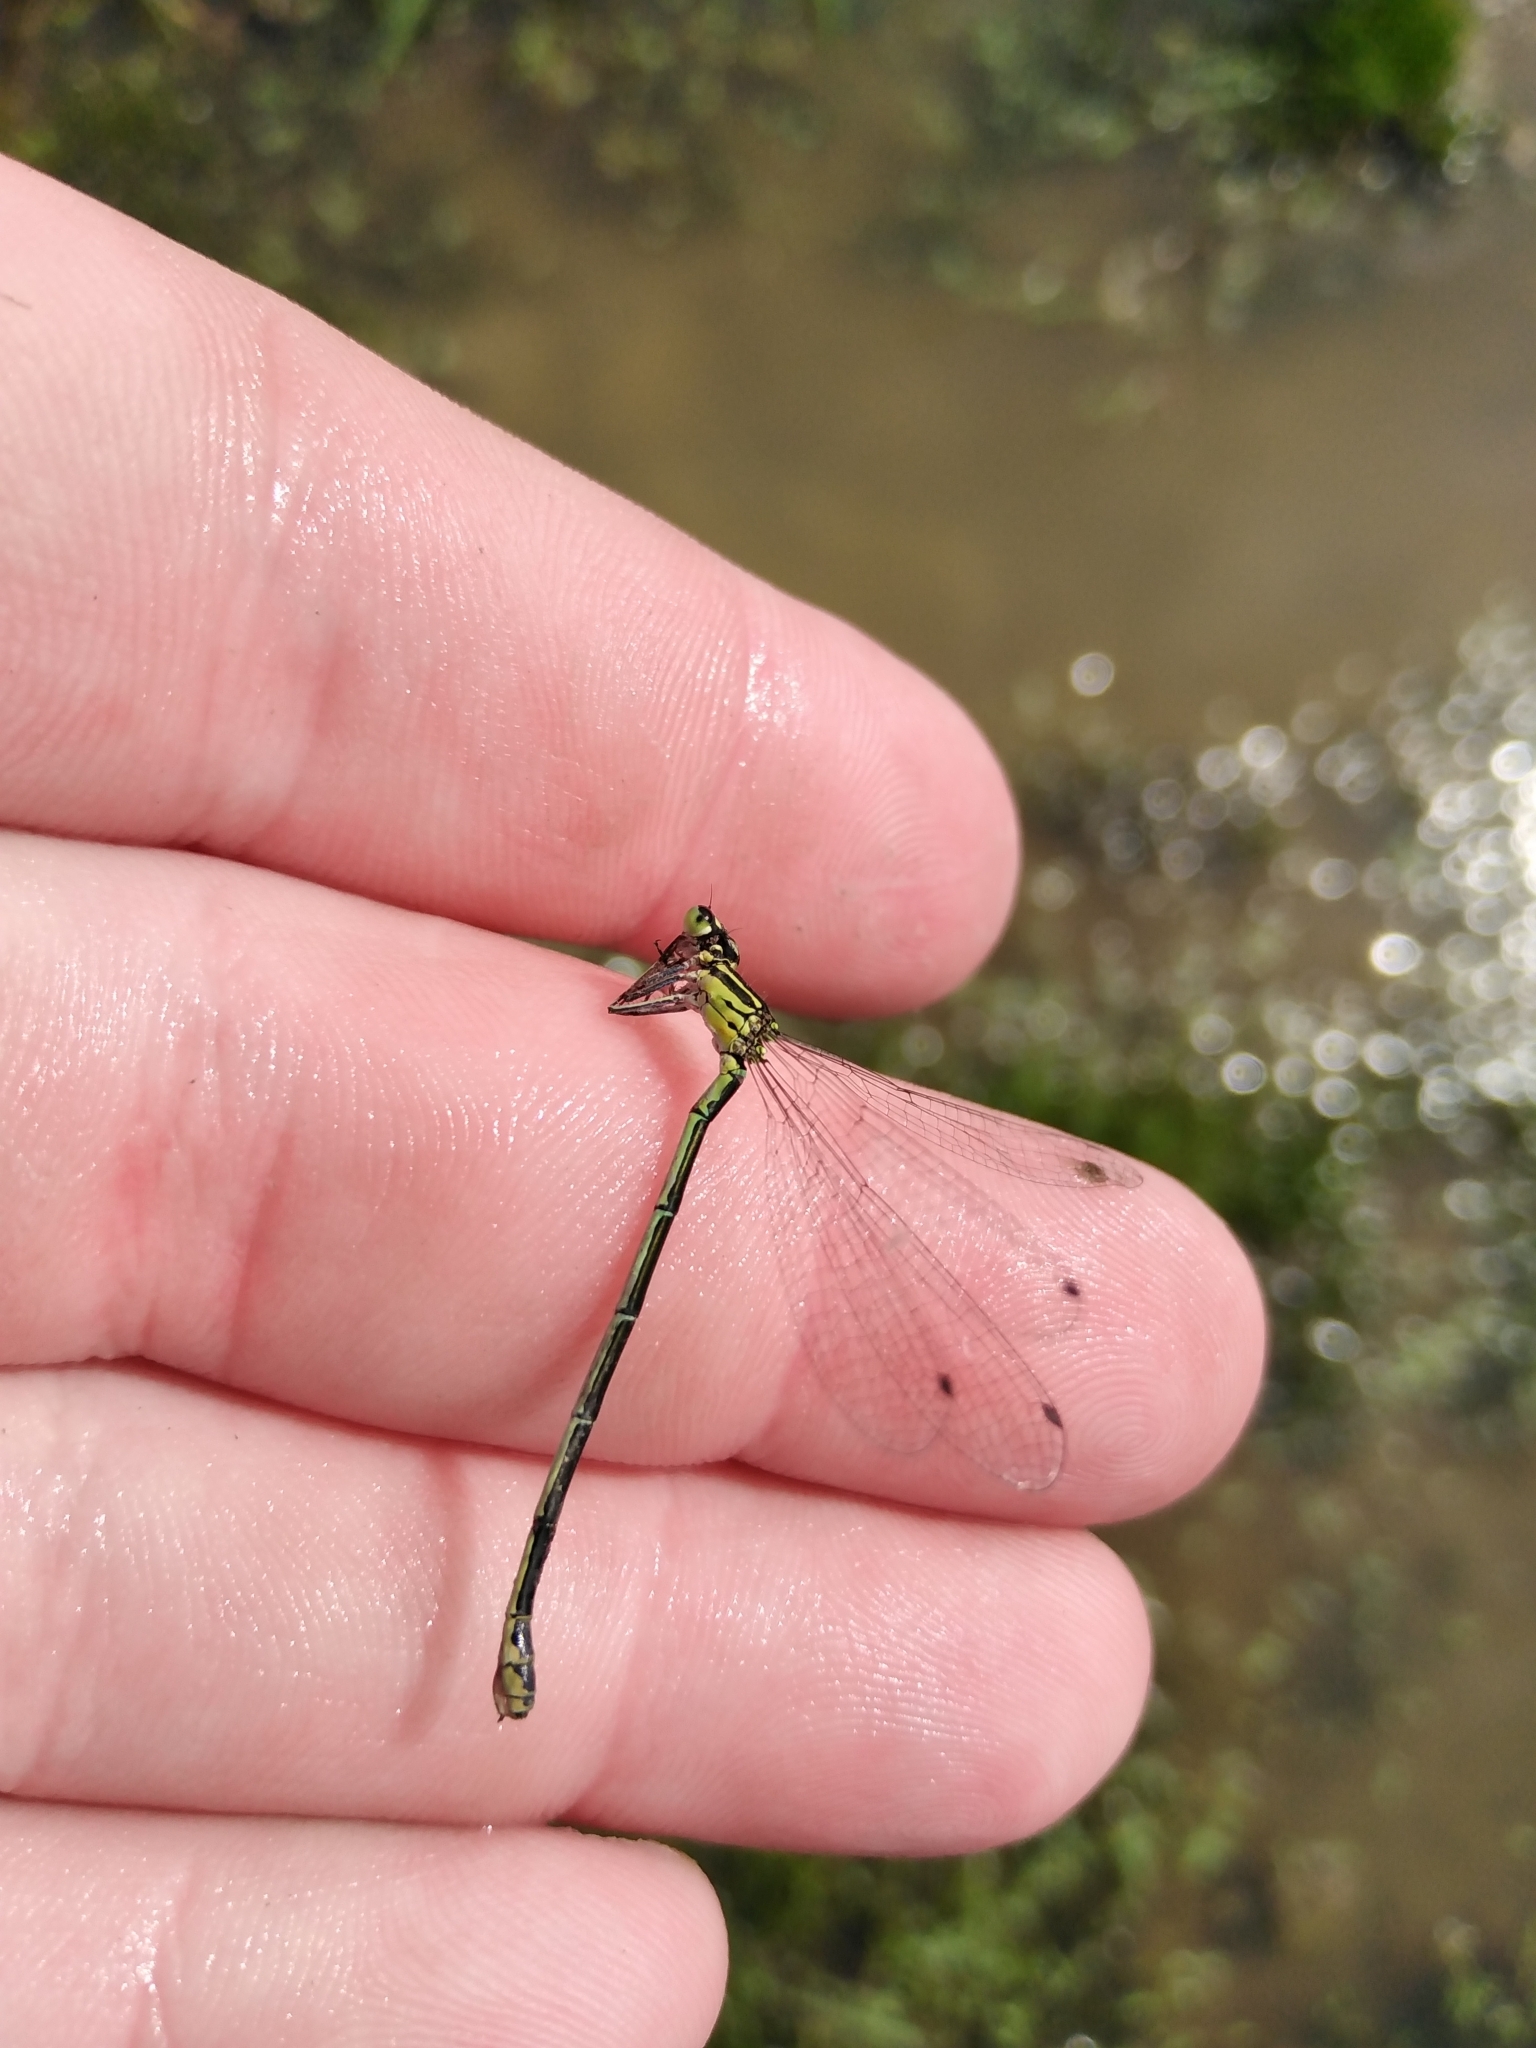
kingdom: Animalia
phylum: Arthropoda
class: Insecta
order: Odonata
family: Coenagrionidae
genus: Coenagrion
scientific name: Coenagrion puella
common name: Azure damselfly
